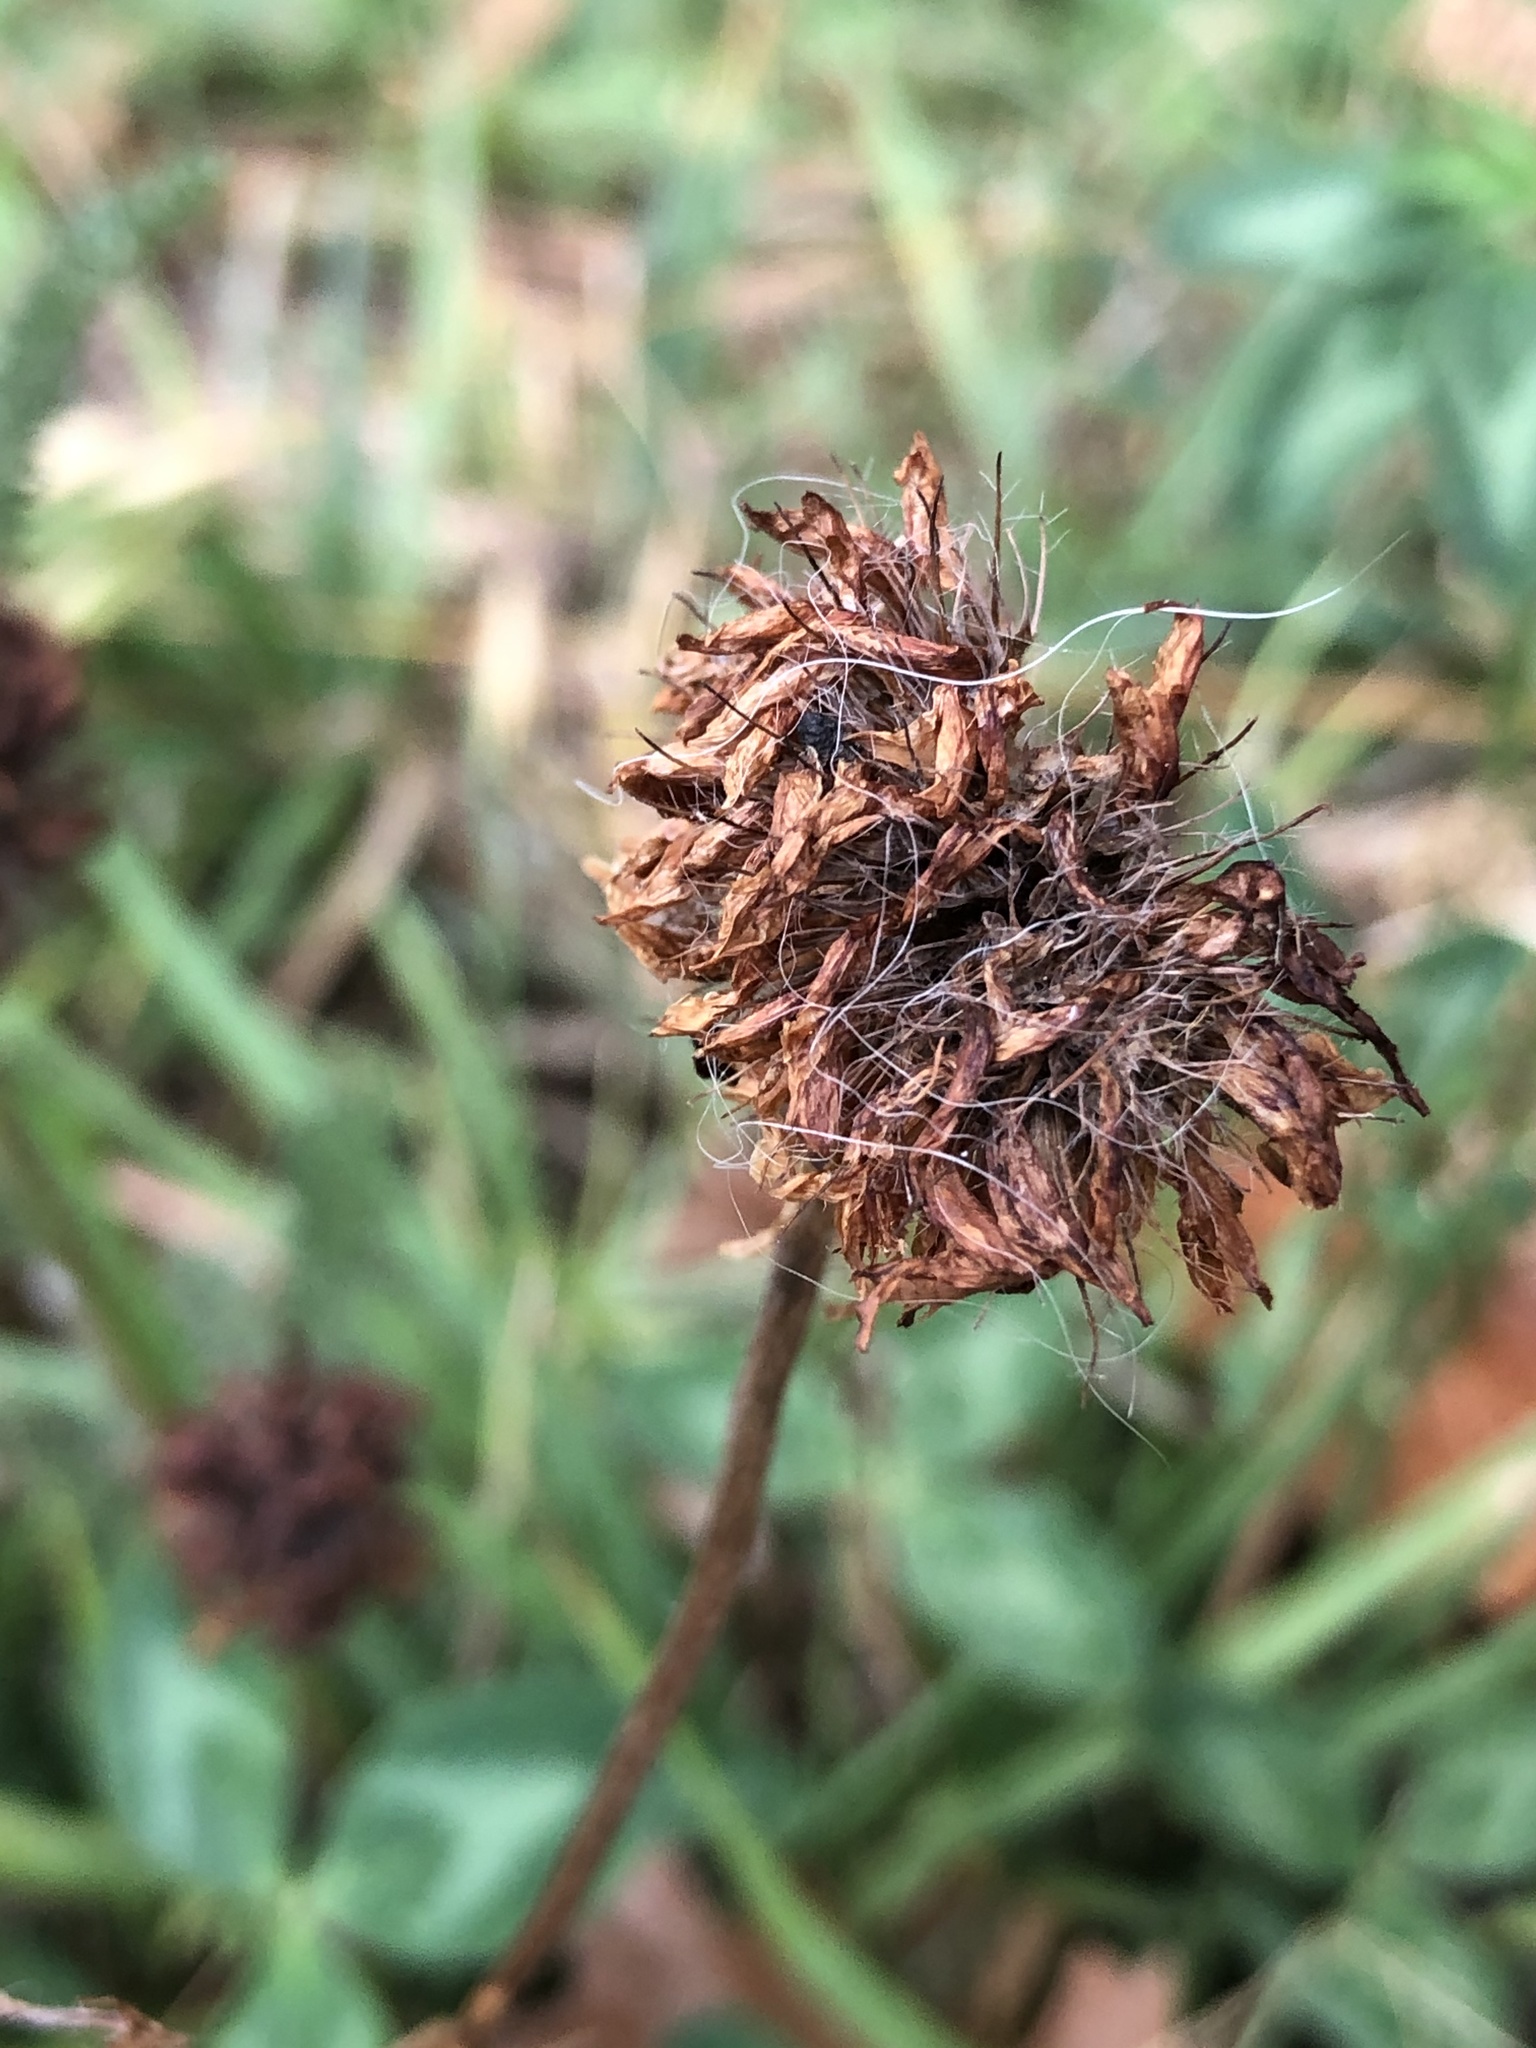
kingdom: Plantae
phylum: Tracheophyta
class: Magnoliopsida
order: Fabales
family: Fabaceae
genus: Trifolium
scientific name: Trifolium pratense
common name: Red clover
